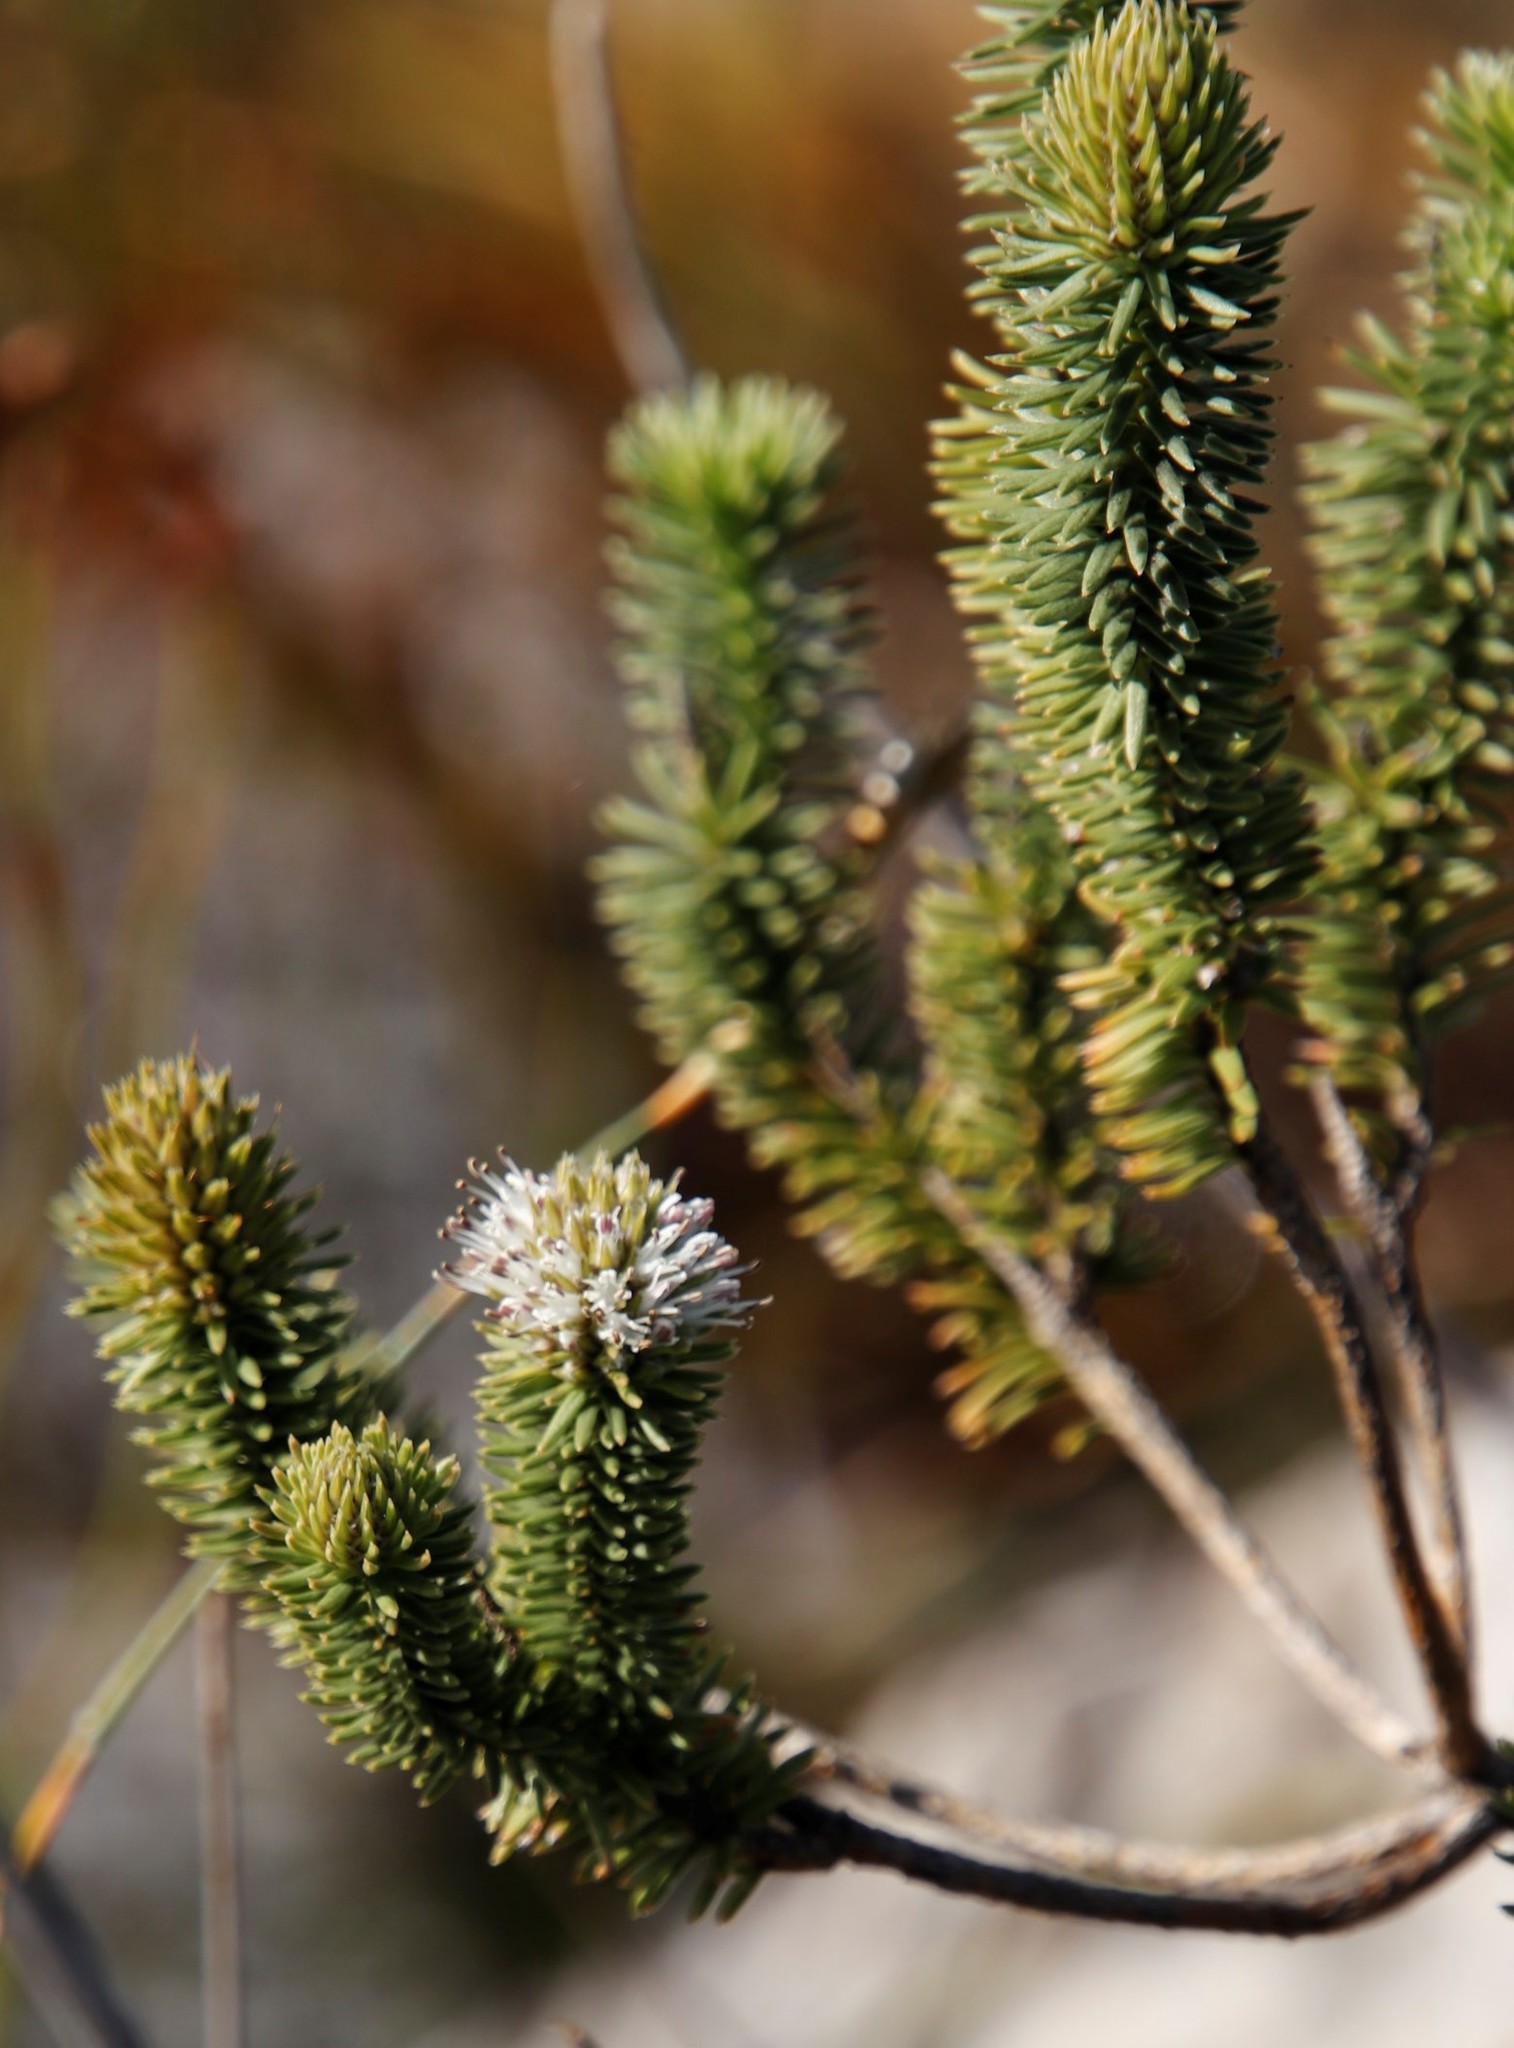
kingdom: Plantae
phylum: Tracheophyta
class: Magnoliopsida
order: Lamiales
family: Stilbaceae
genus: Stilbe
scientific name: Stilbe vestita
